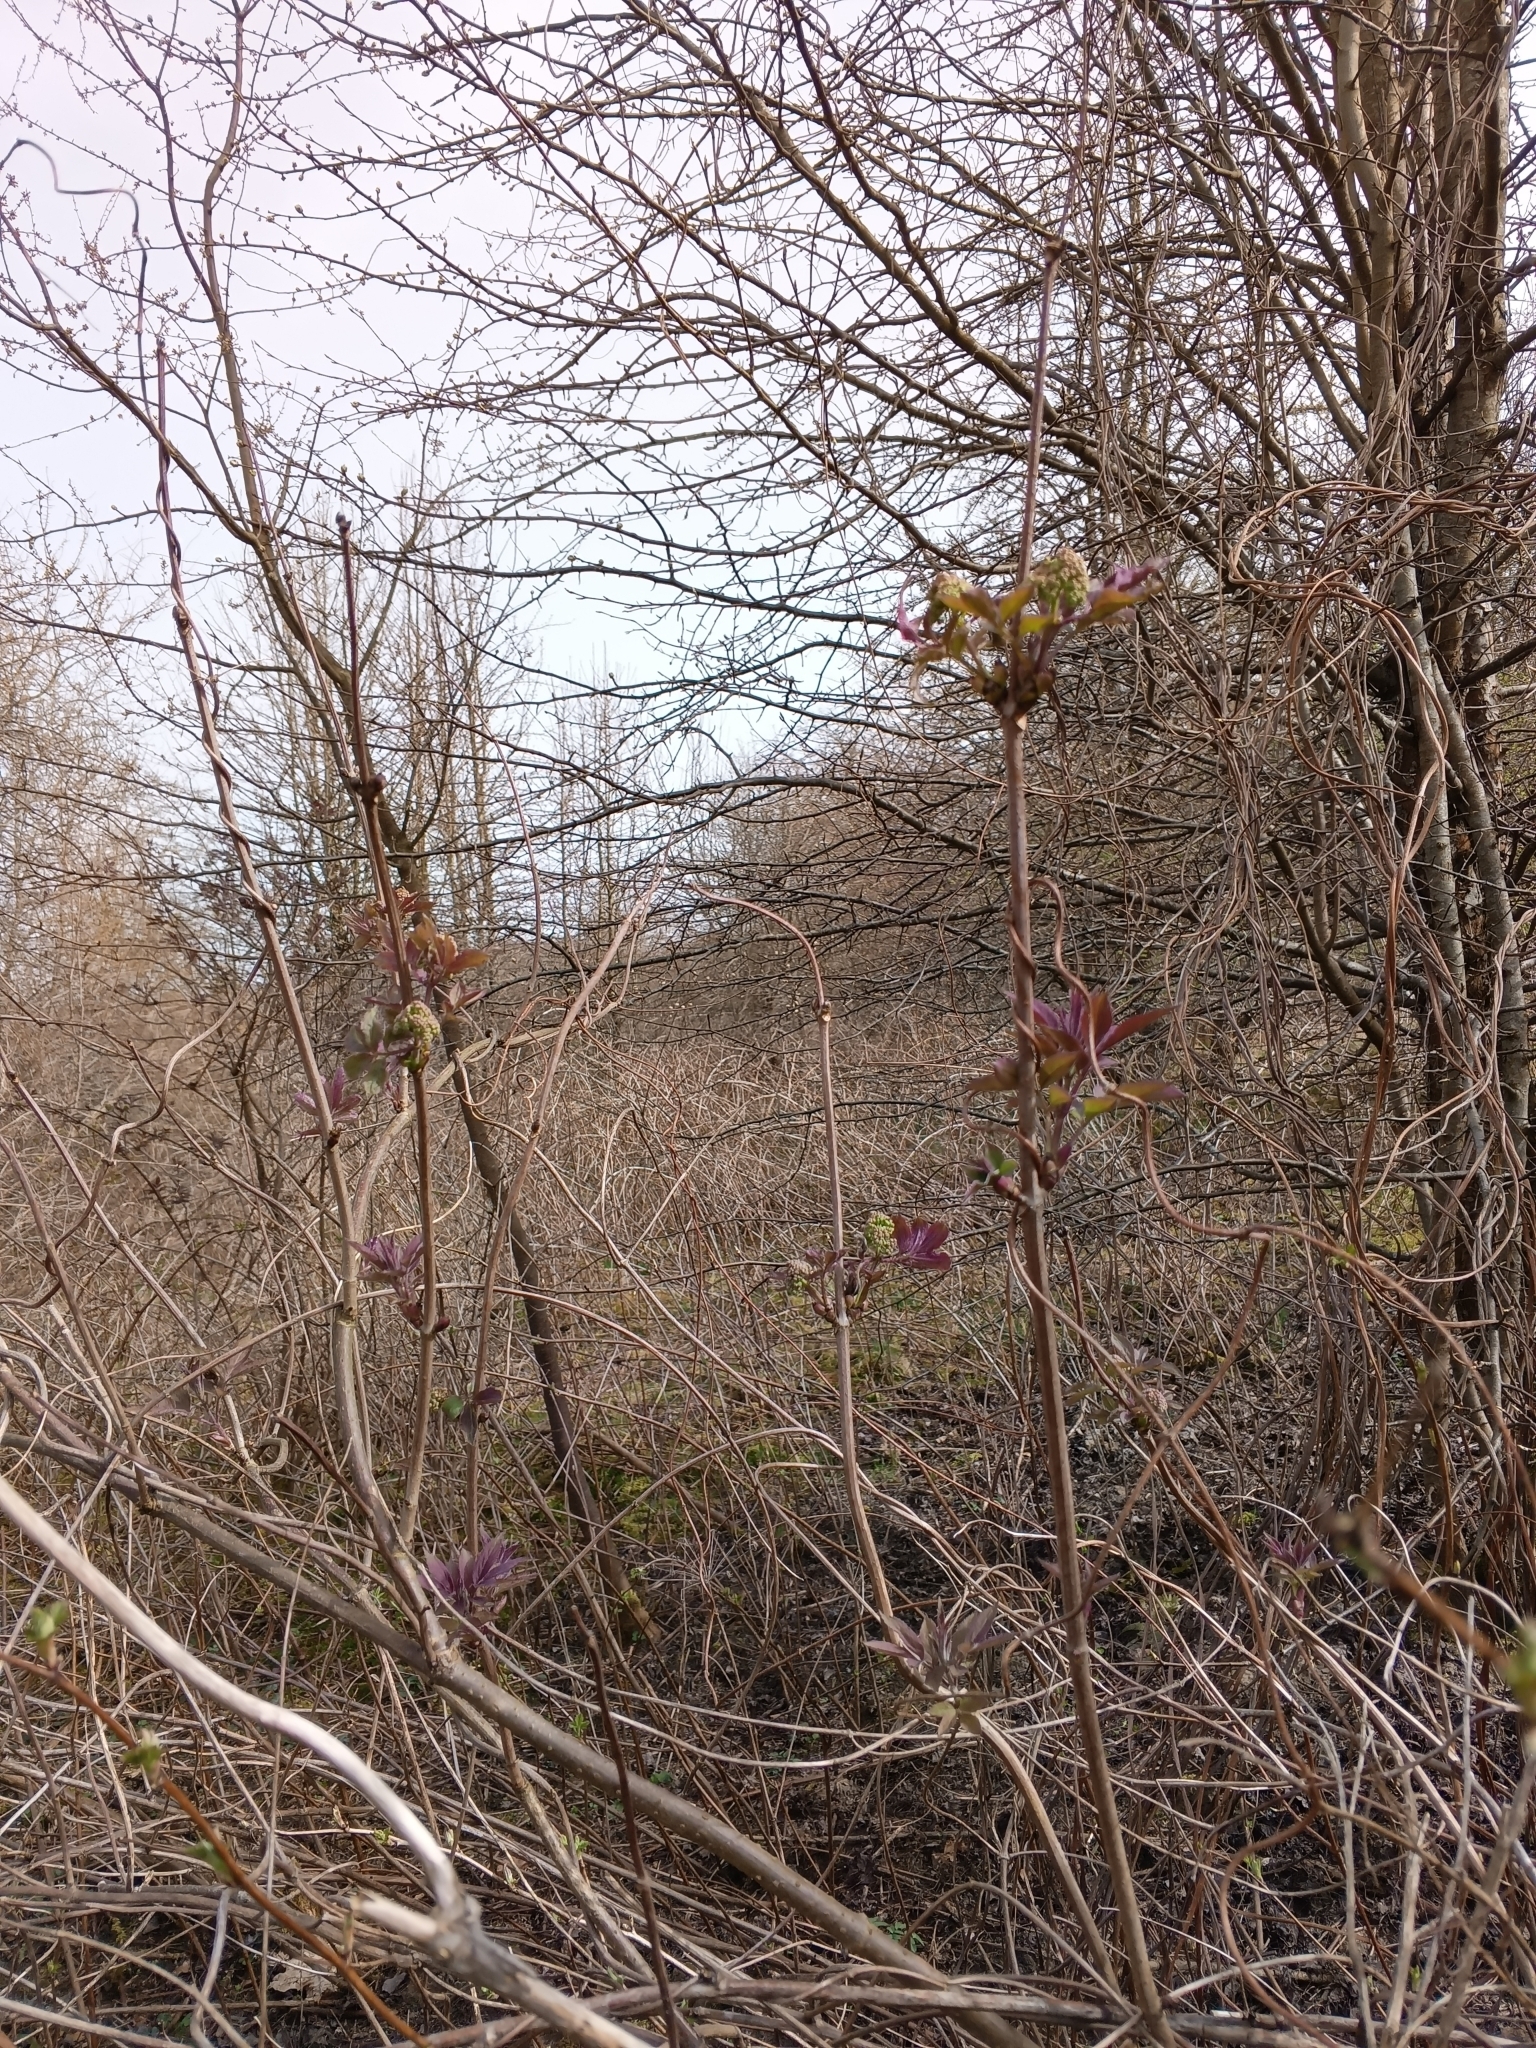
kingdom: Plantae
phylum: Tracheophyta
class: Magnoliopsida
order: Dipsacales
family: Viburnaceae
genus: Sambucus
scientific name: Sambucus racemosa
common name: Red-berried elder
